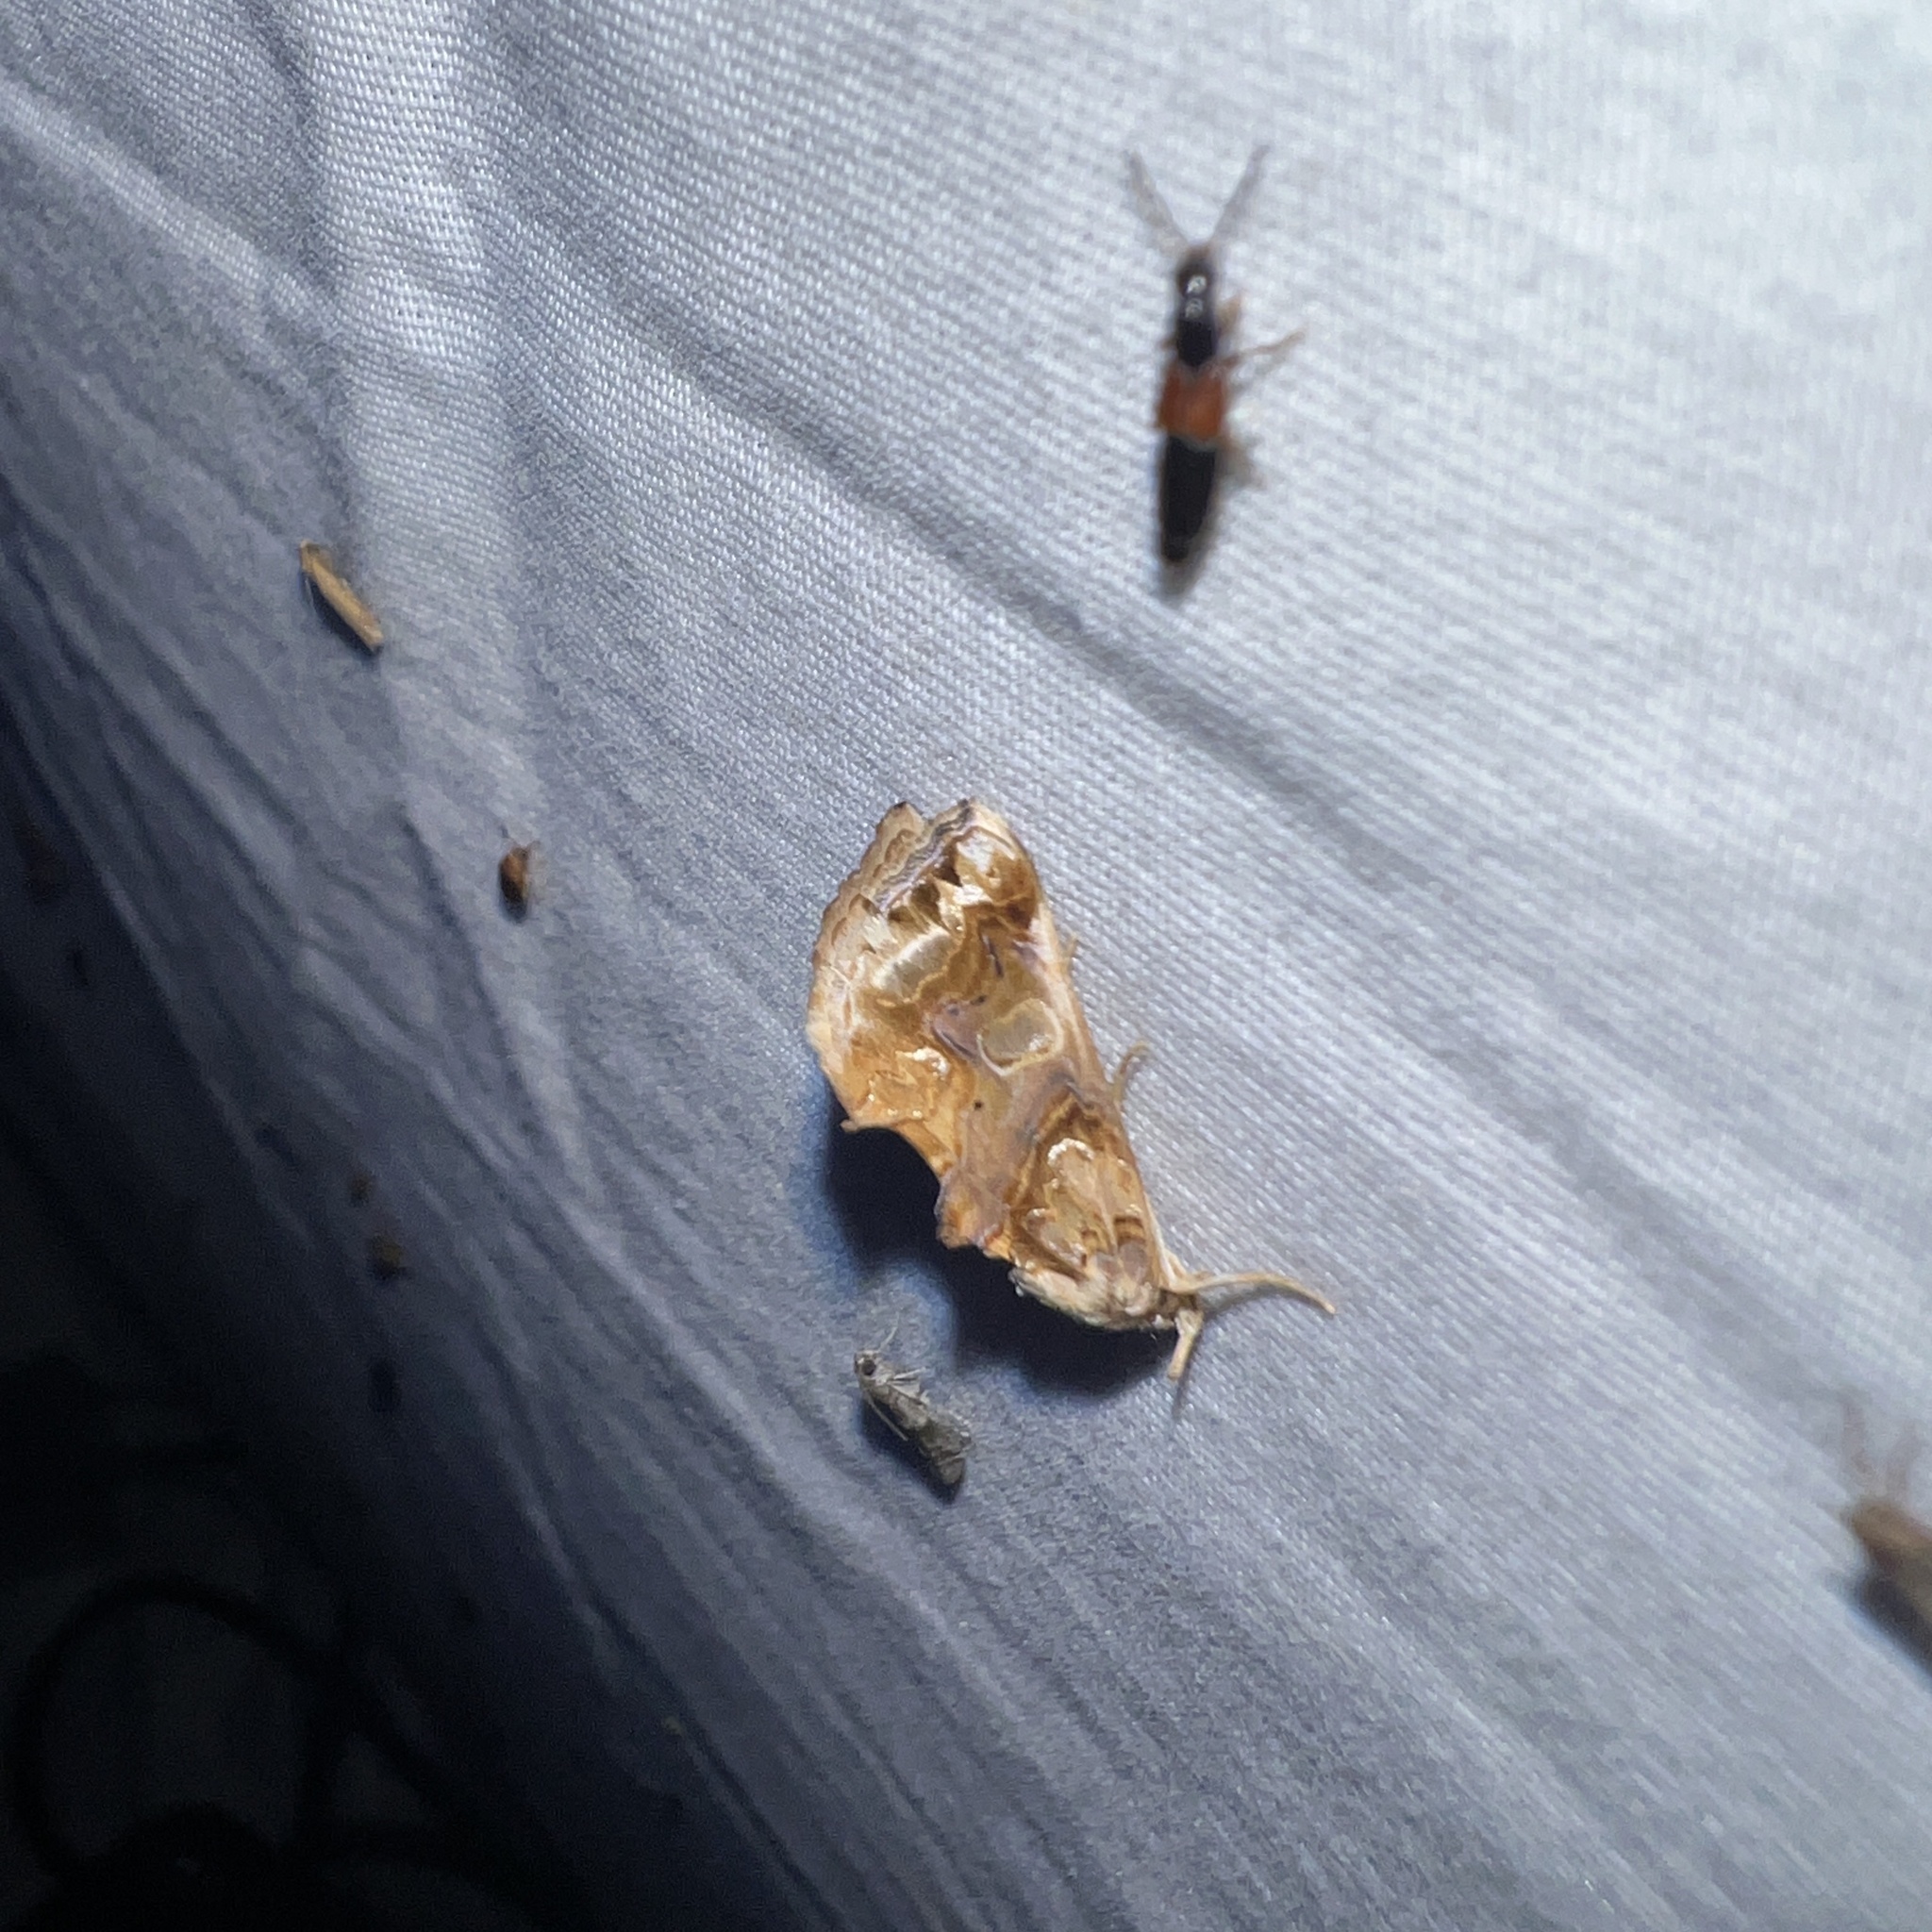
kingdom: Animalia
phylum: Arthropoda
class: Insecta
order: Lepidoptera
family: Erebidae
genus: Plusiodonta
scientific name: Plusiodonta compressipalpis
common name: Moonseed moth
